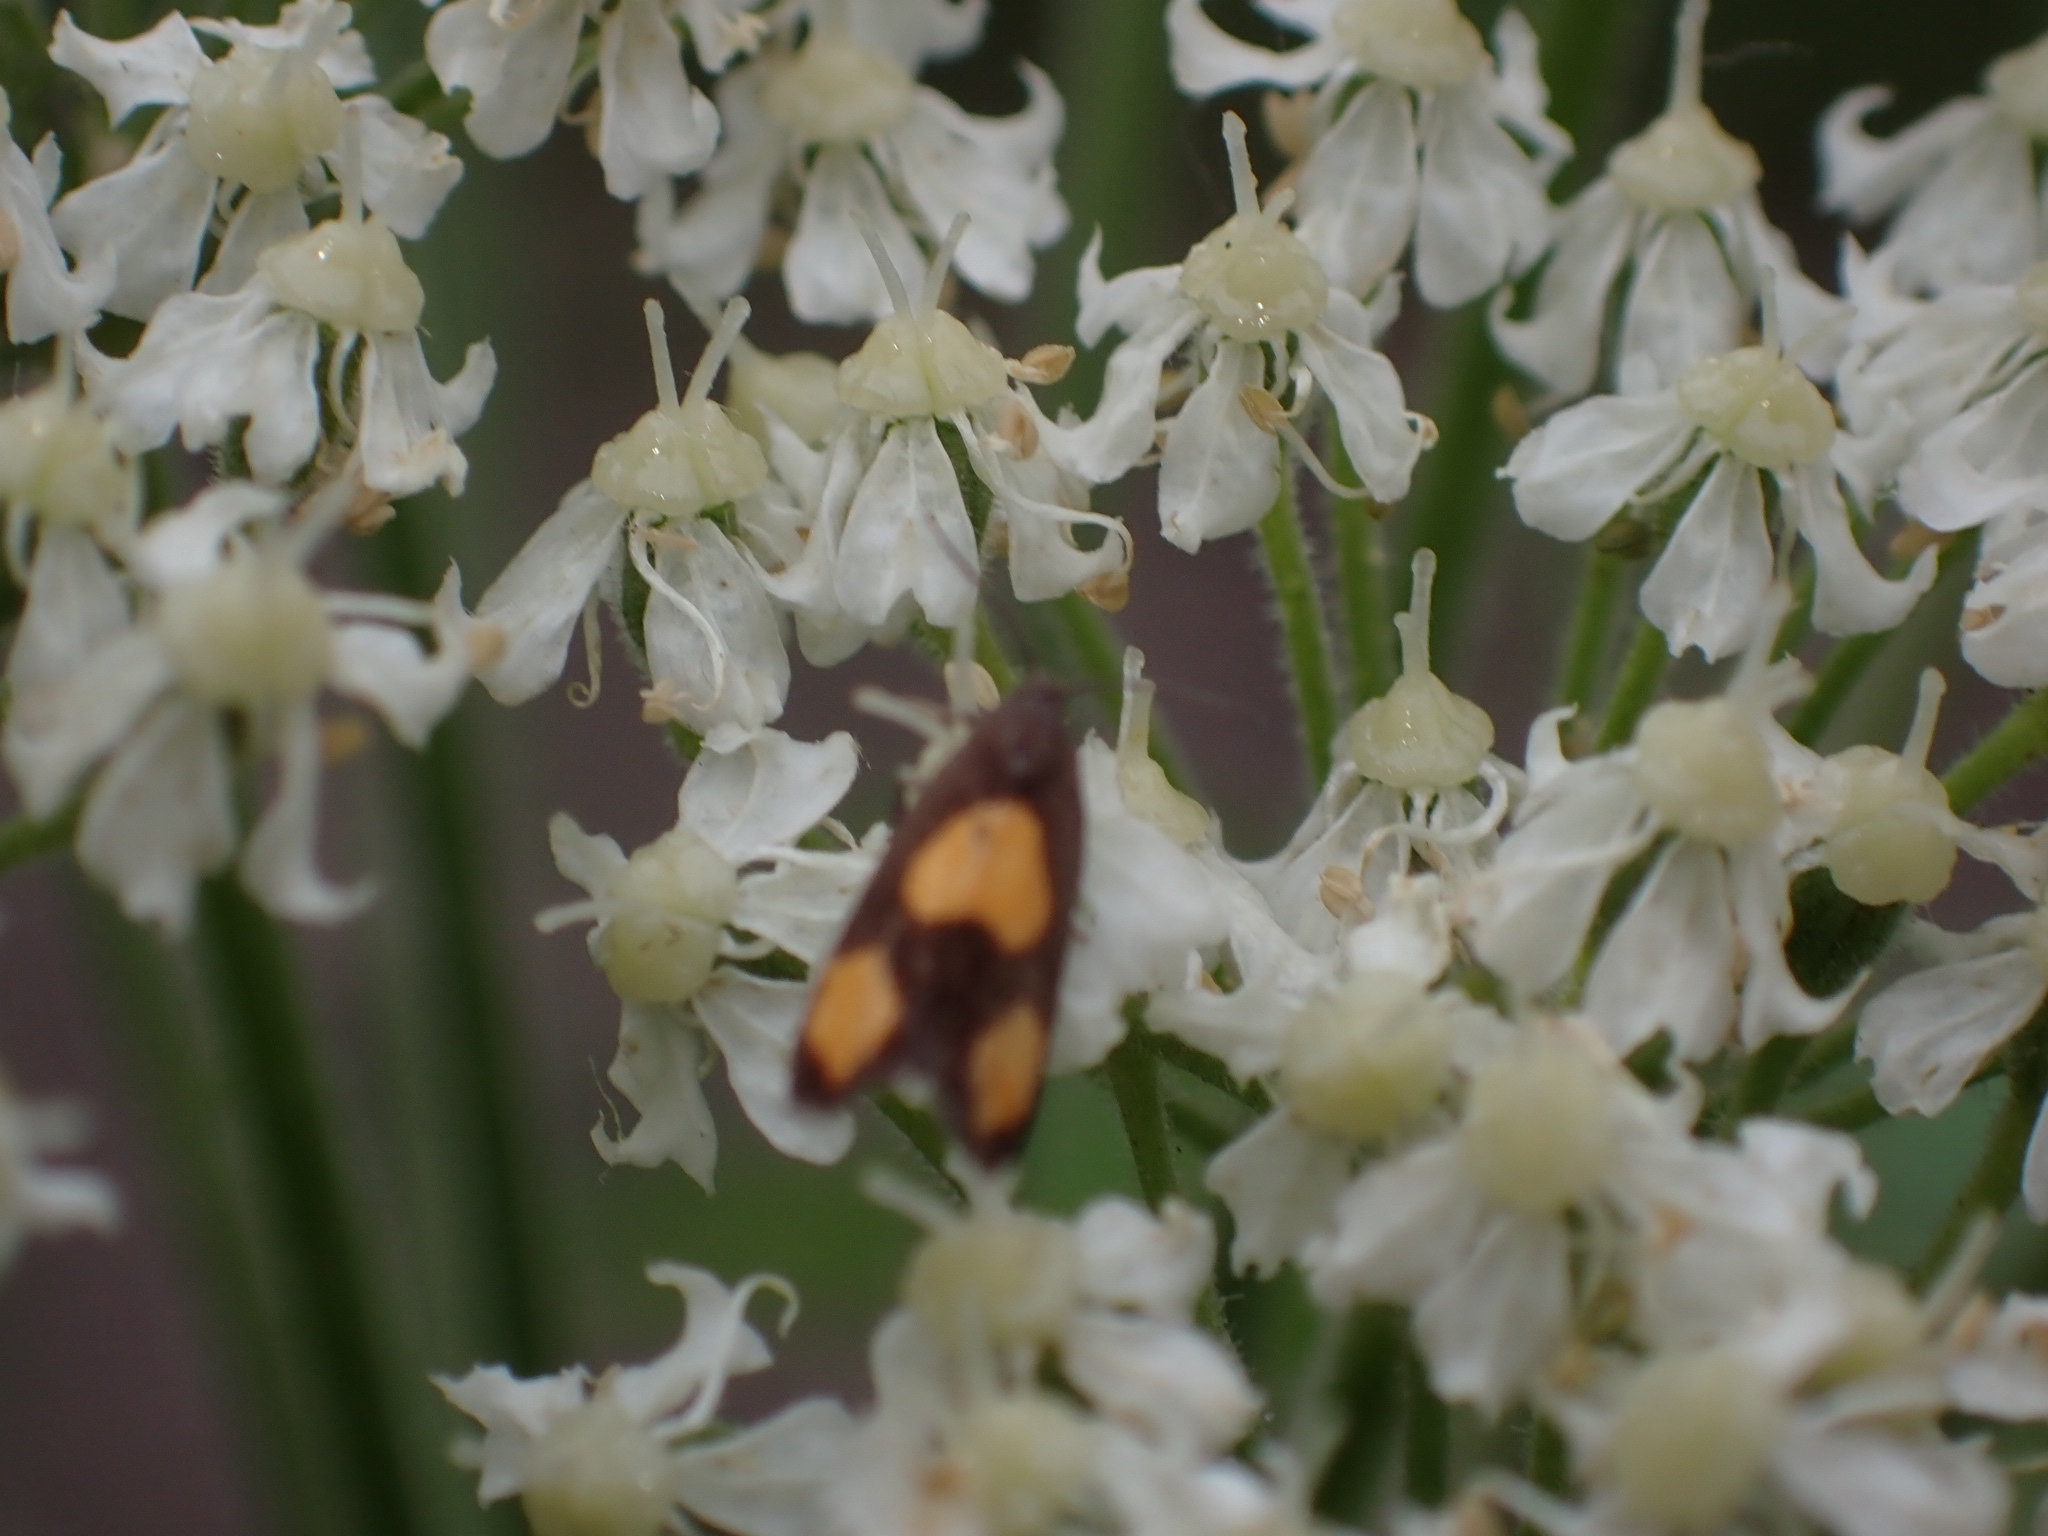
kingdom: Animalia
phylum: Arthropoda
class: Insecta
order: Lepidoptera
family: Tortricidae
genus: Pammene
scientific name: Pammene aurana
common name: Orange-spot piercer
